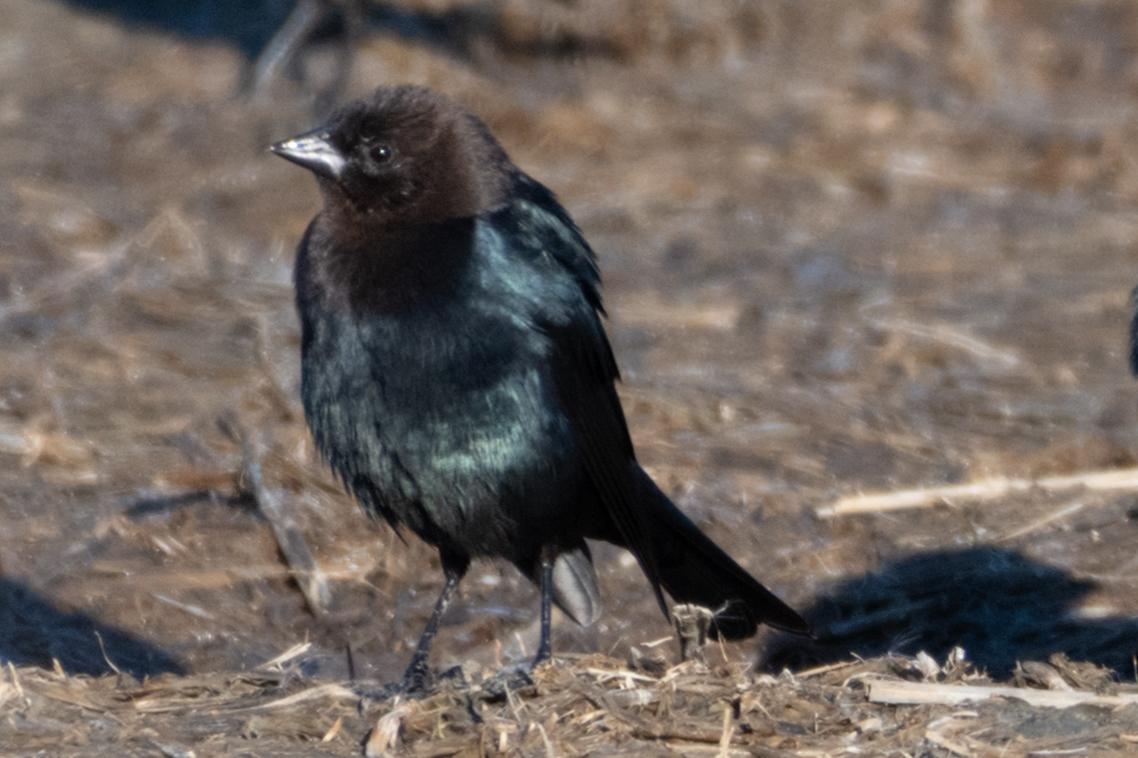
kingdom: Animalia
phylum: Chordata
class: Aves
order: Passeriformes
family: Icteridae
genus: Molothrus
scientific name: Molothrus ater
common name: Brown-headed cowbird
